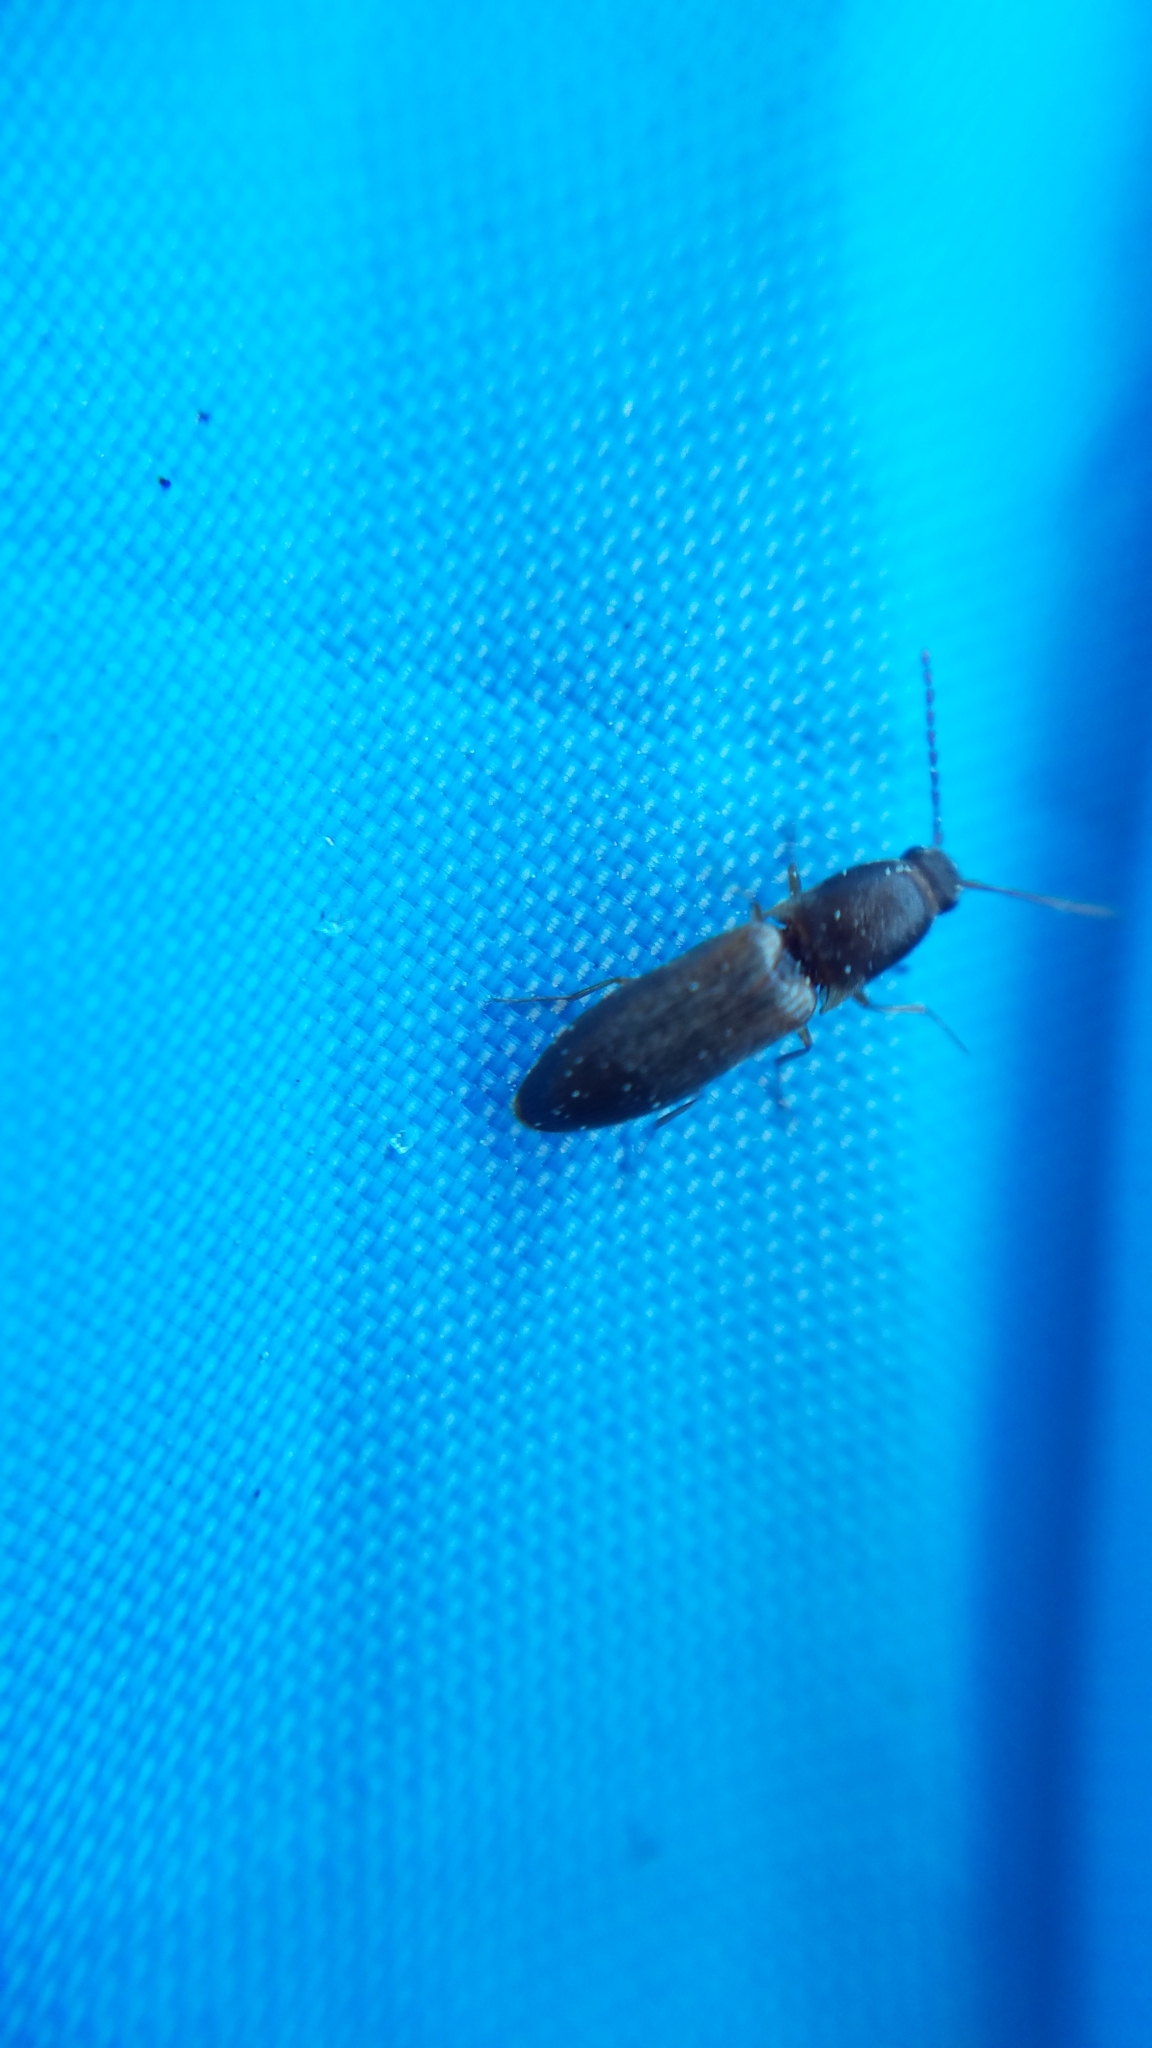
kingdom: Animalia
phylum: Arthropoda
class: Insecta
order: Coleoptera
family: Elateridae
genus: Dolerosomus
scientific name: Dolerosomus silaceus
